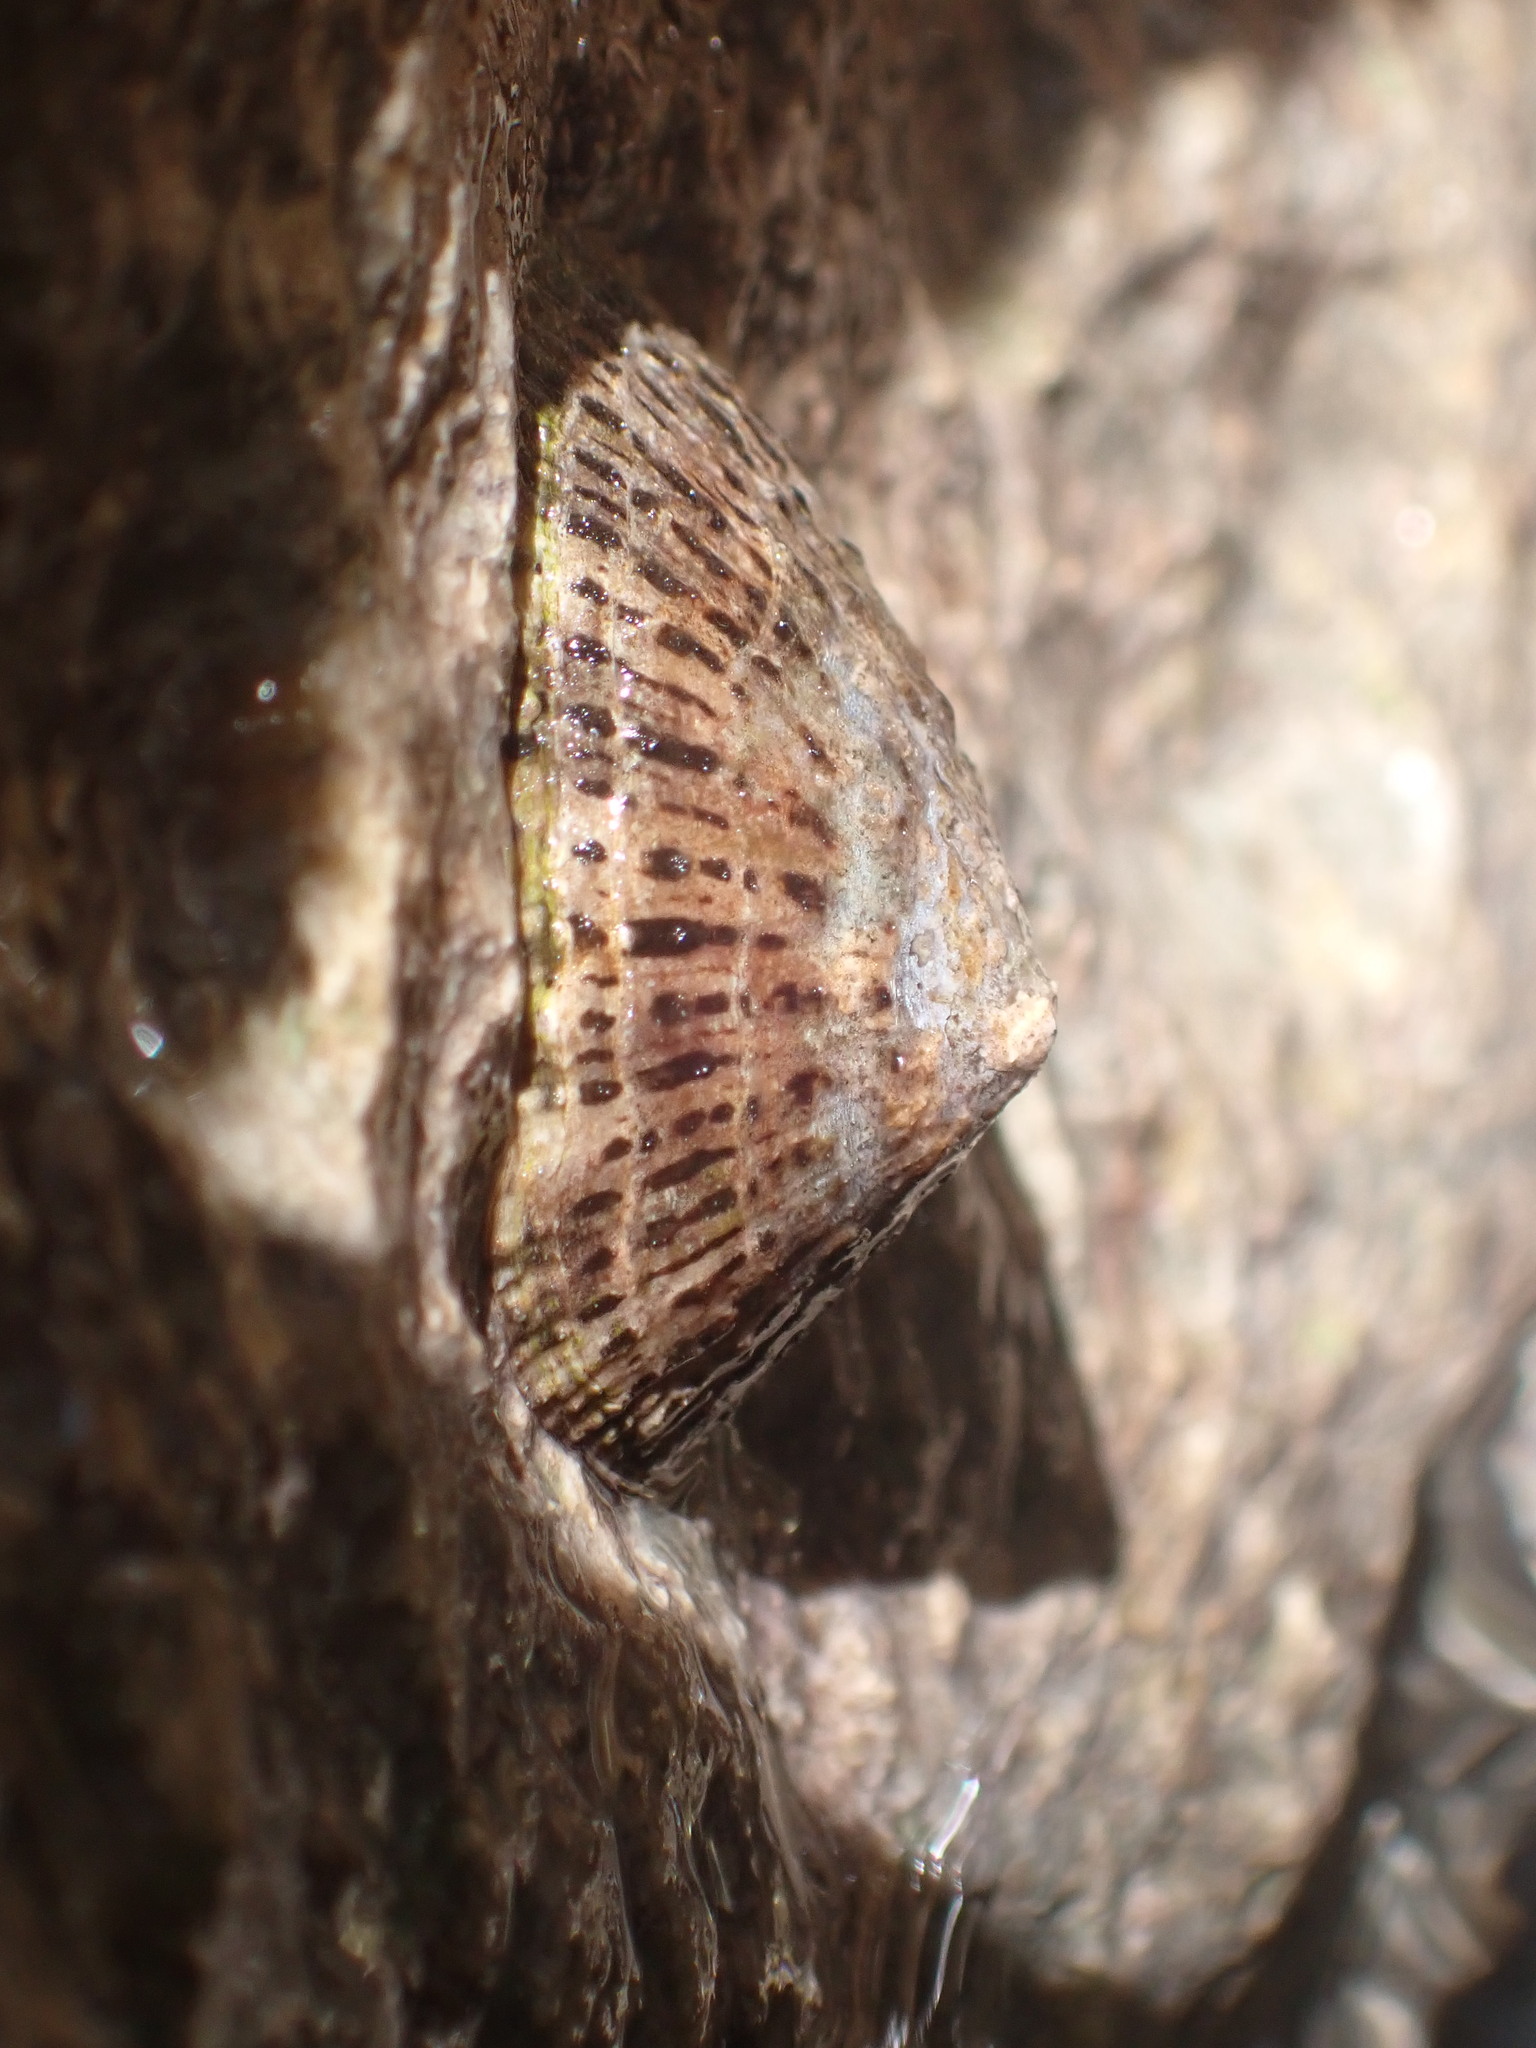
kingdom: Animalia
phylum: Mollusca
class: Gastropoda
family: Patellidae
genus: Patella
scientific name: Patella rustica
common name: Lusitanian limpet
